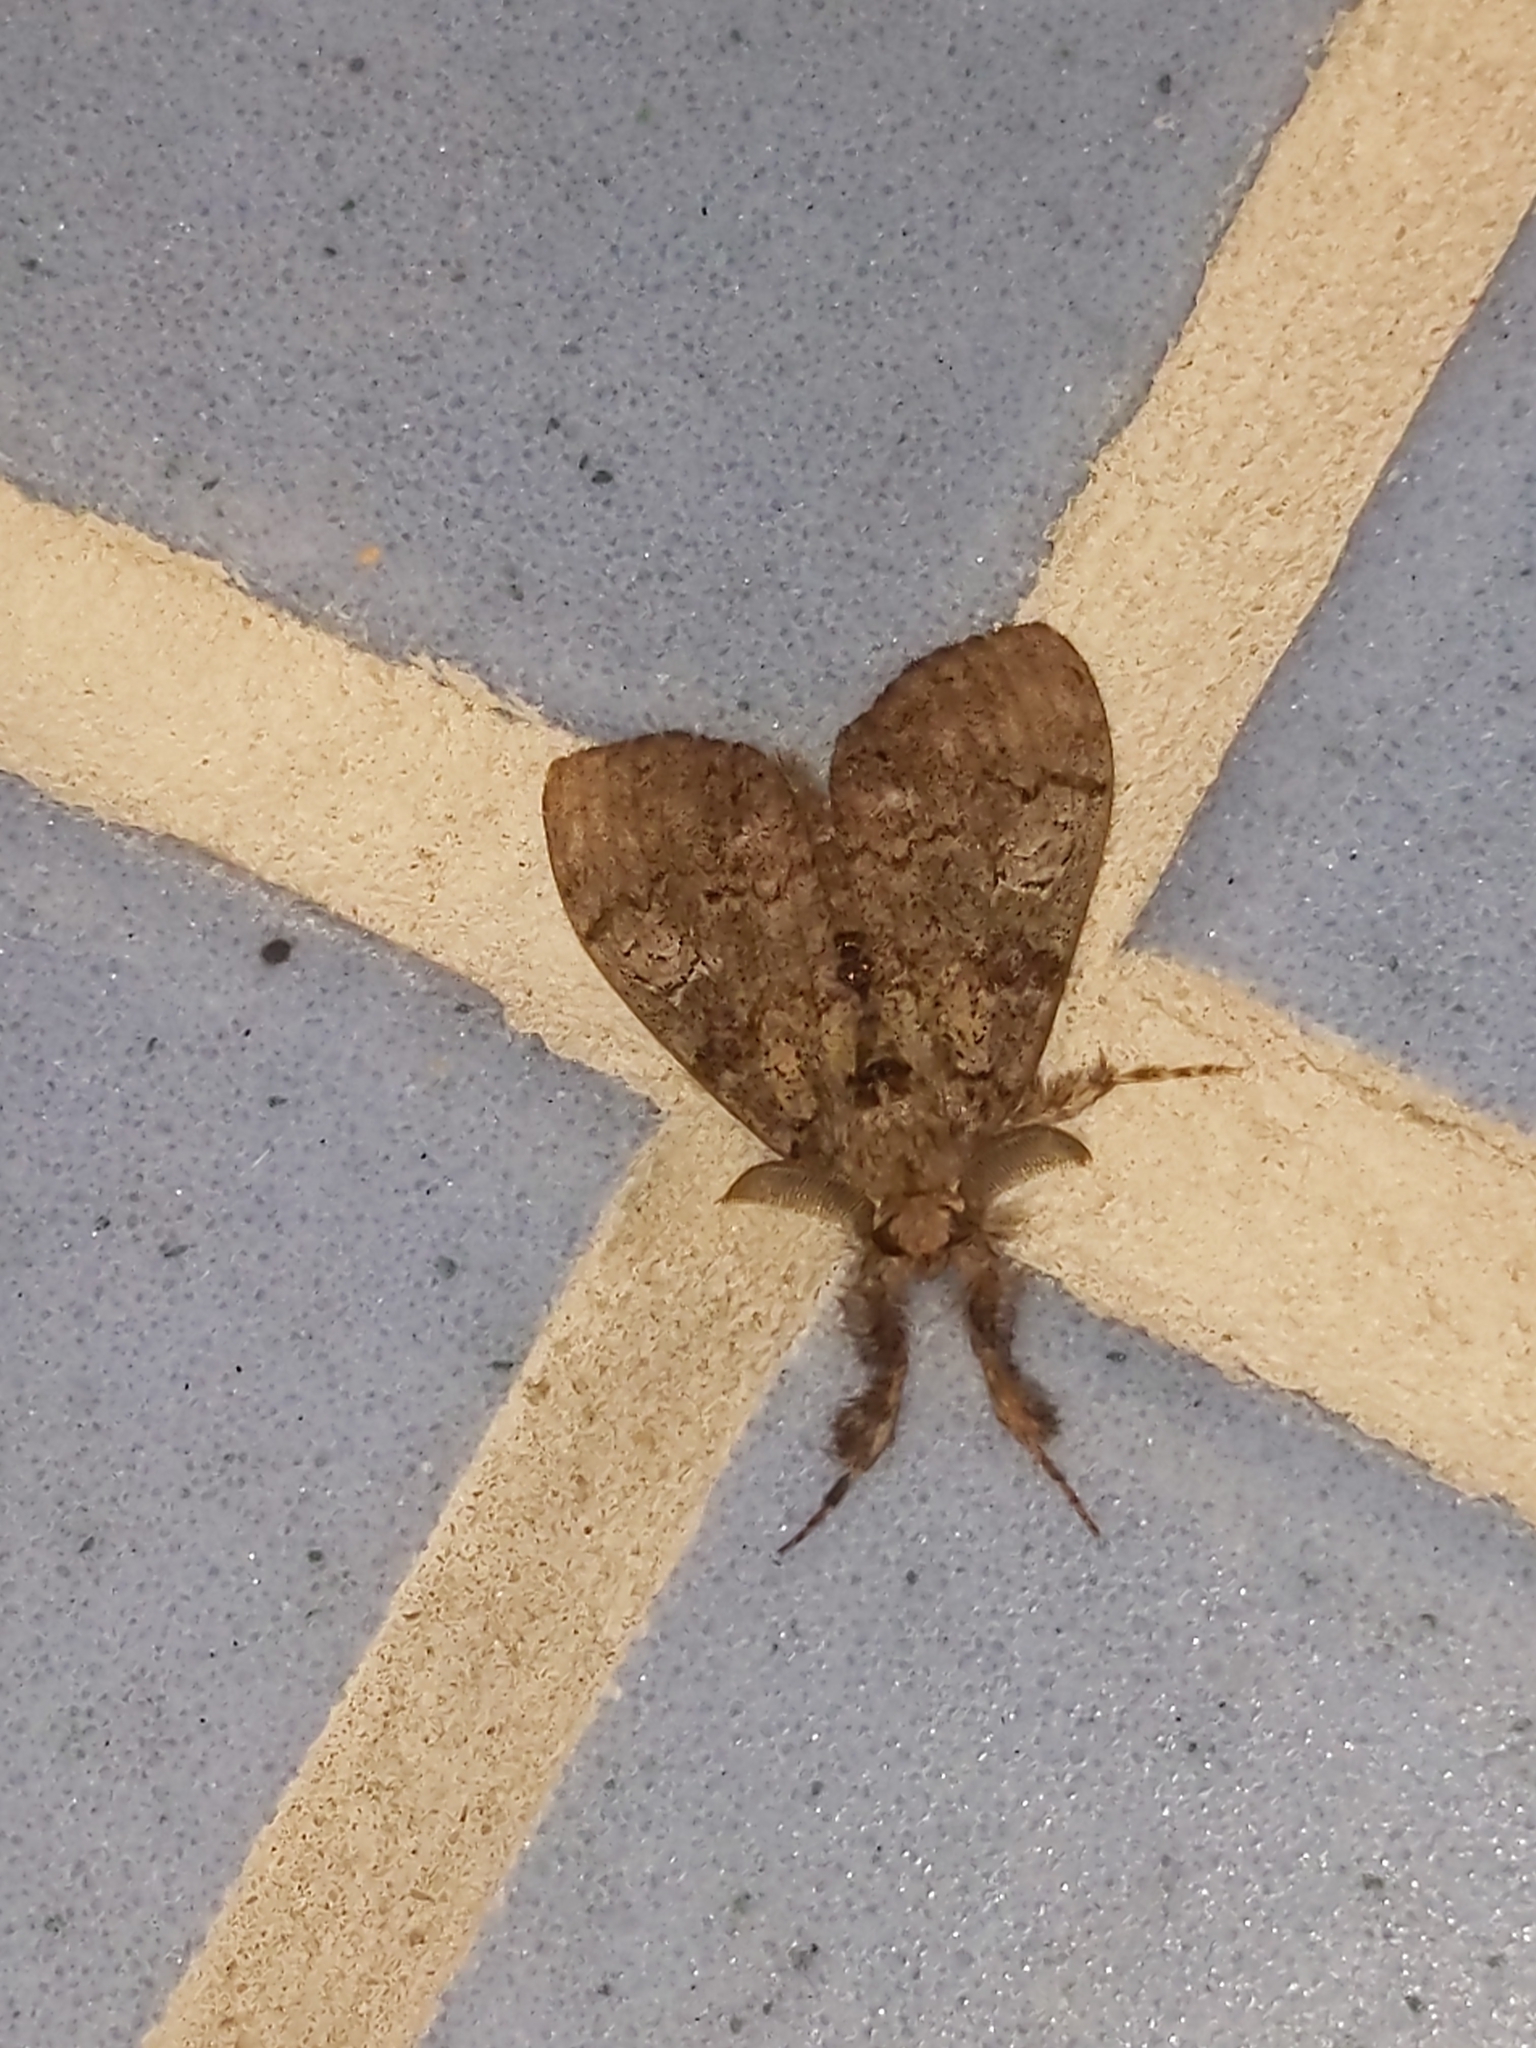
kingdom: Animalia
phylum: Arthropoda
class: Insecta
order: Lepidoptera
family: Erebidae
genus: Dasychira
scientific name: Dasychira obliquata
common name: Streaked tussock moth
